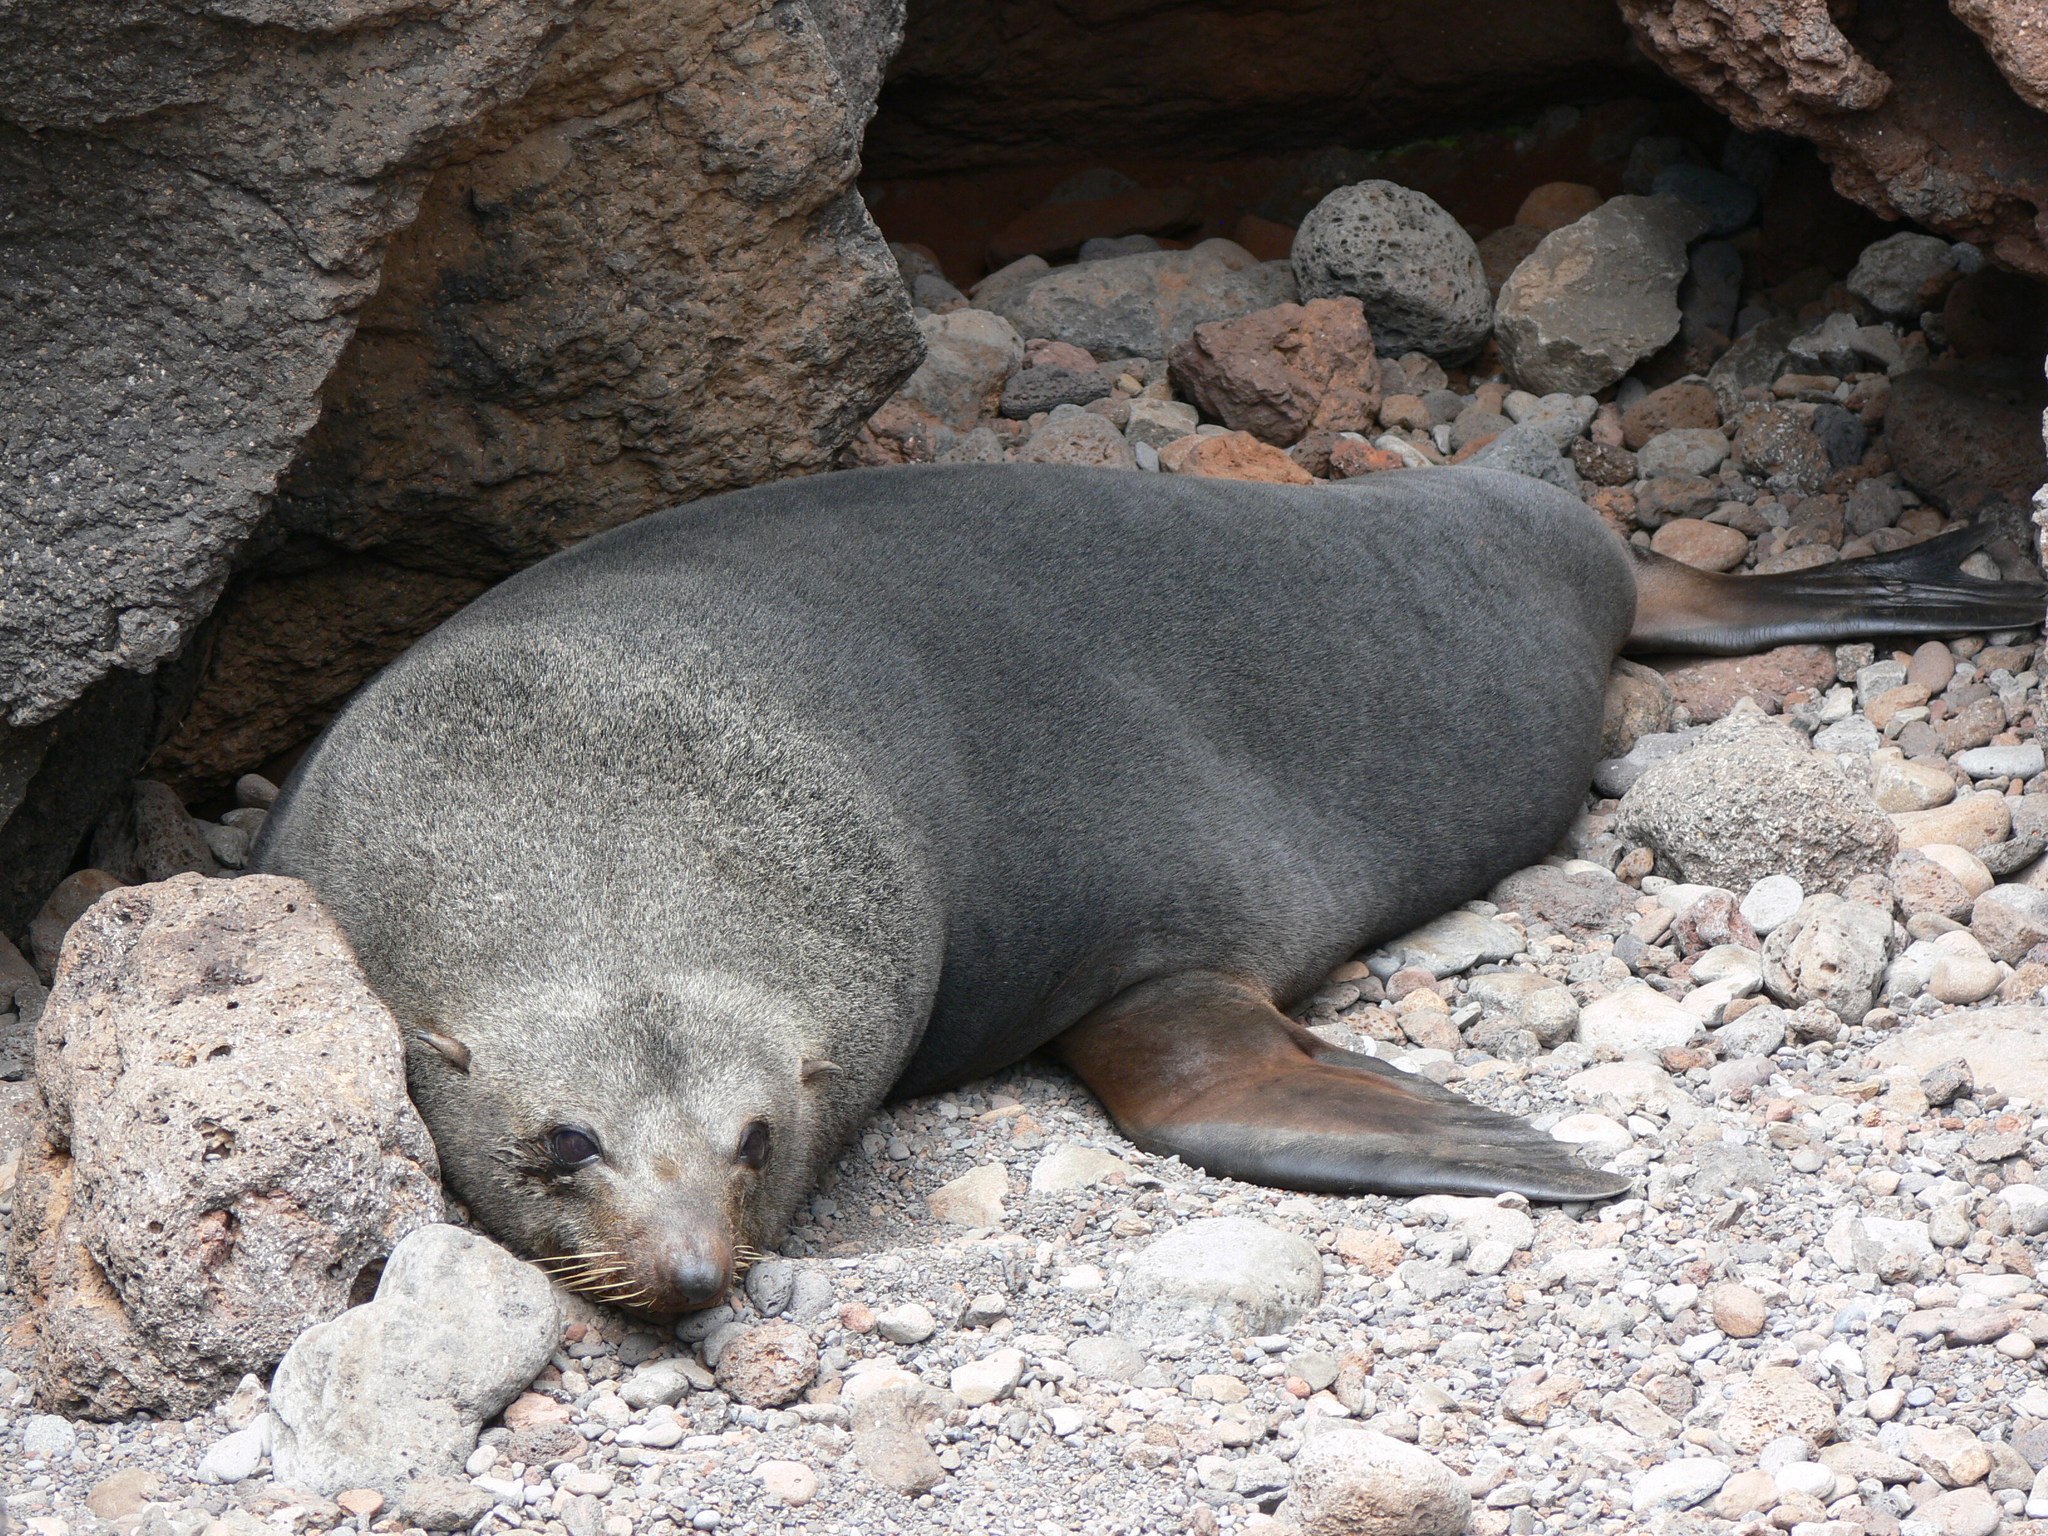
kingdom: Animalia
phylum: Chordata
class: Mammalia
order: Carnivora
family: Otariidae
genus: Arctocephalus
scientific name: Arctocephalus philippii
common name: Juan fernández fur seal
